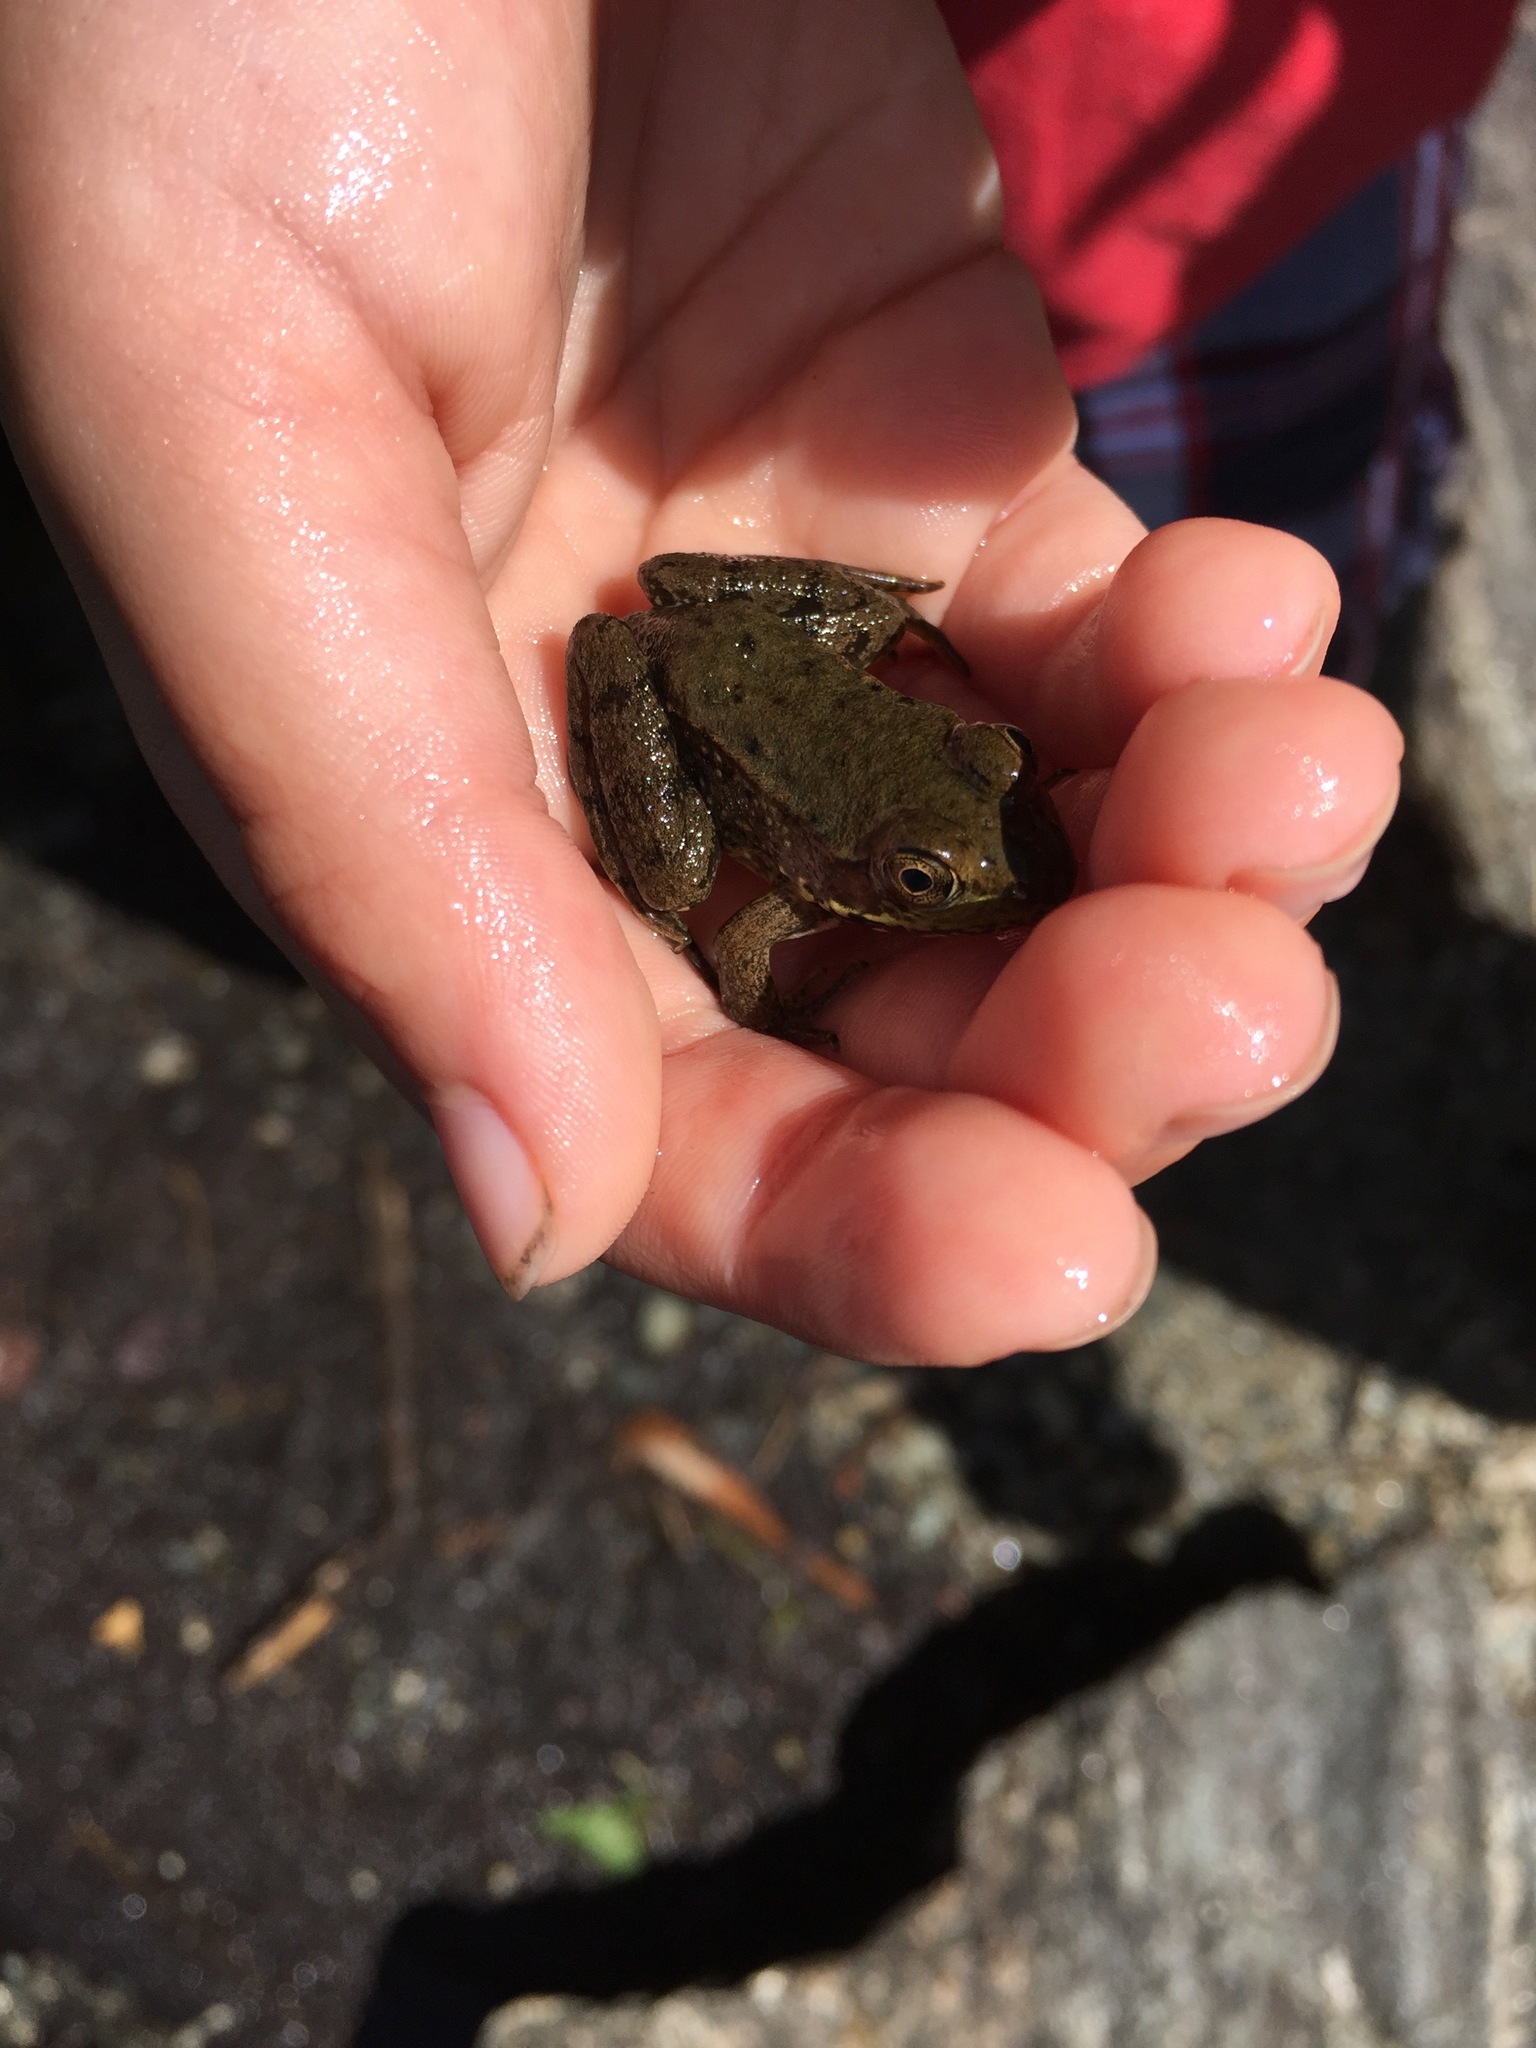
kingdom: Animalia
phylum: Chordata
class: Amphibia
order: Anura
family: Ranidae
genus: Lithobates
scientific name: Lithobates clamitans
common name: Green frog
